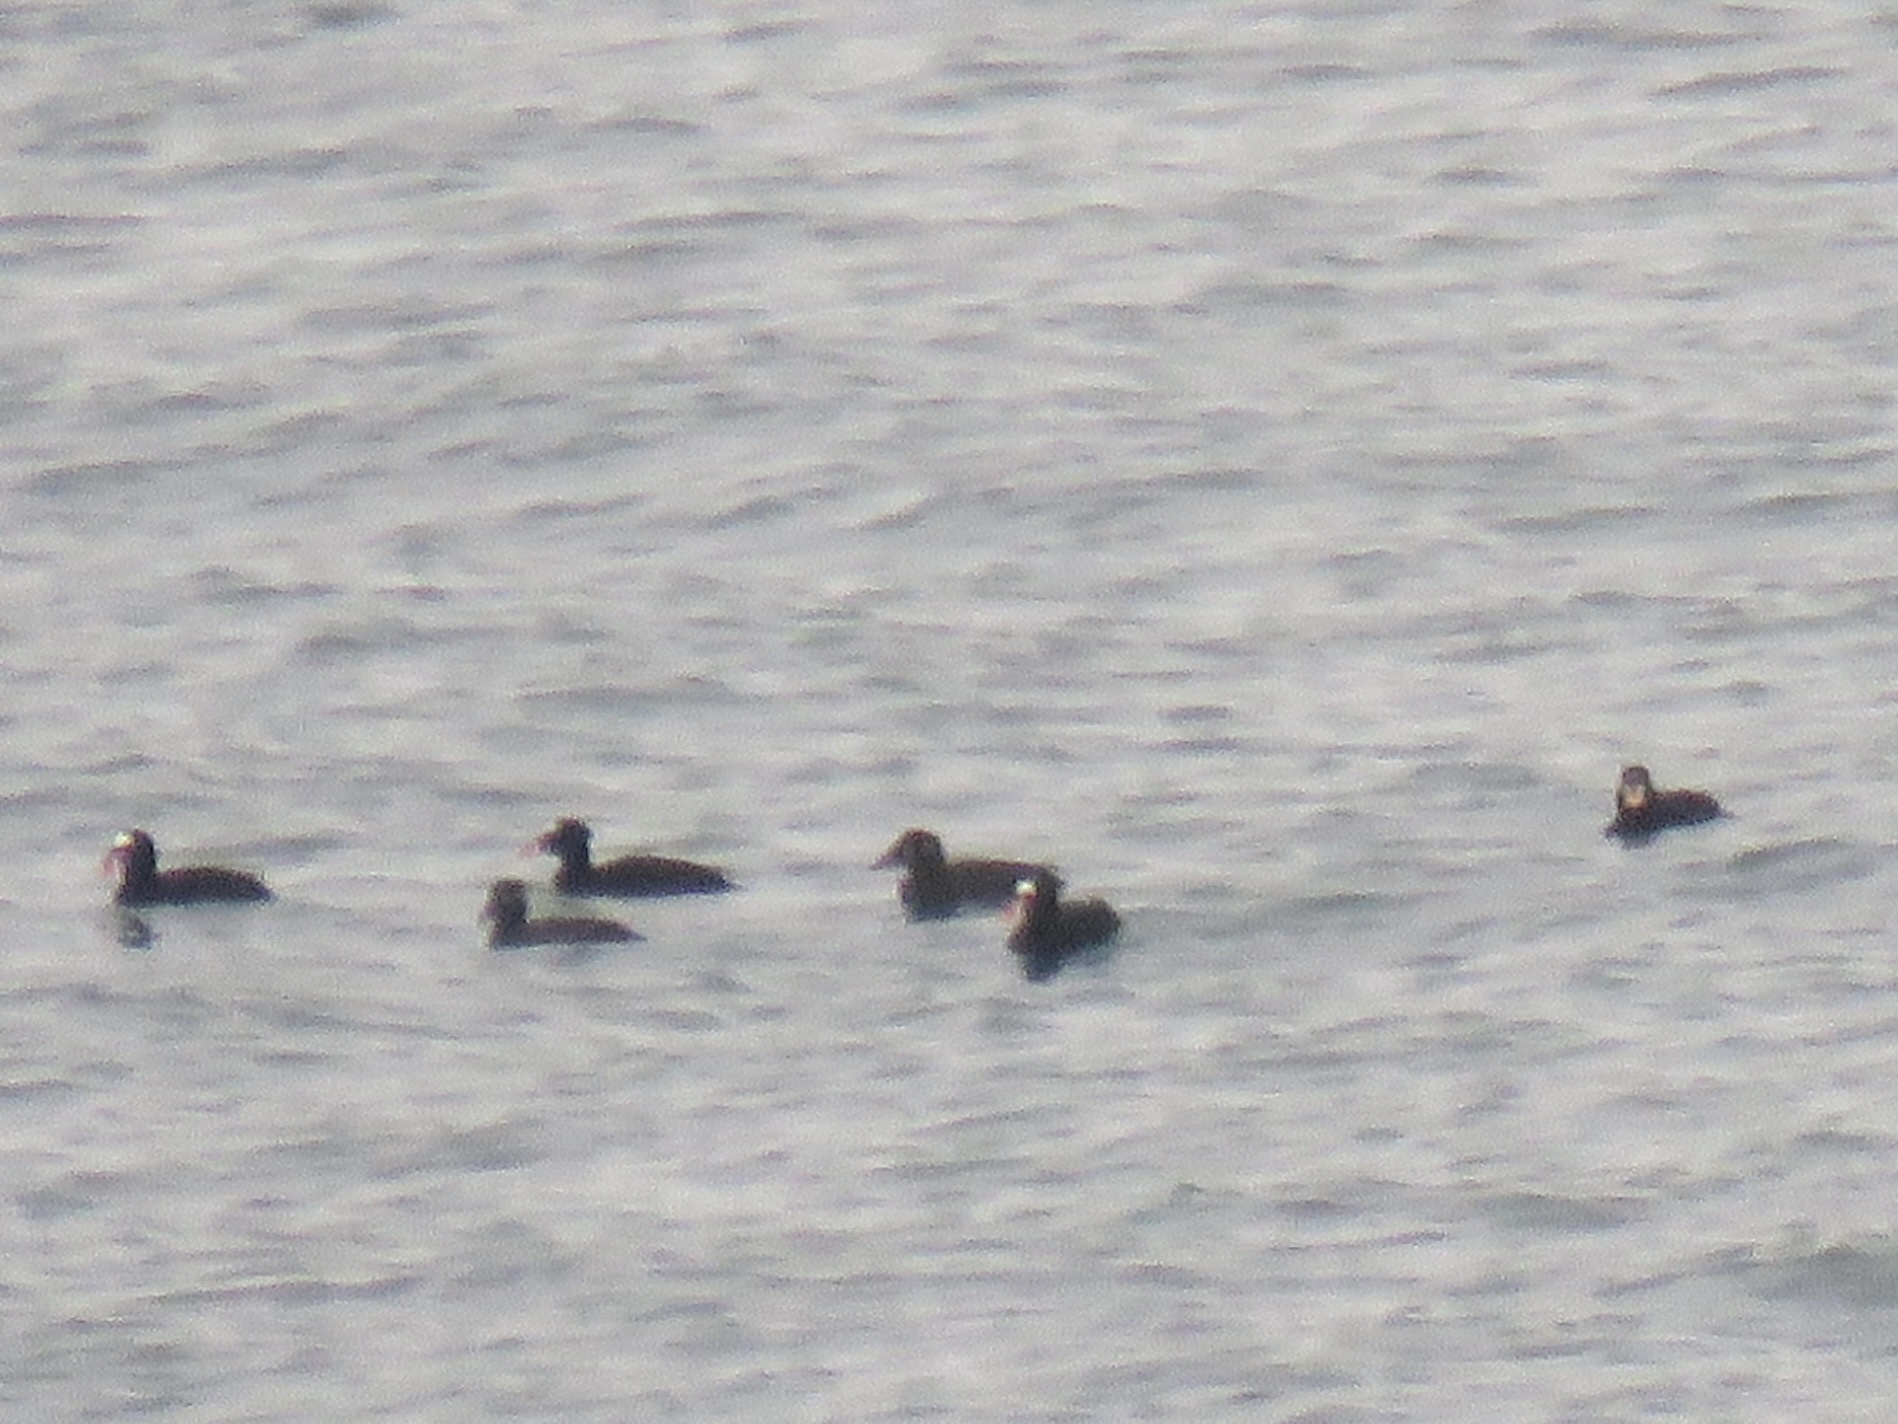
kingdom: Animalia
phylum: Chordata
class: Aves
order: Anseriformes
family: Anatidae
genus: Melanitta
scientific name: Melanitta perspicillata
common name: Surf scoter
